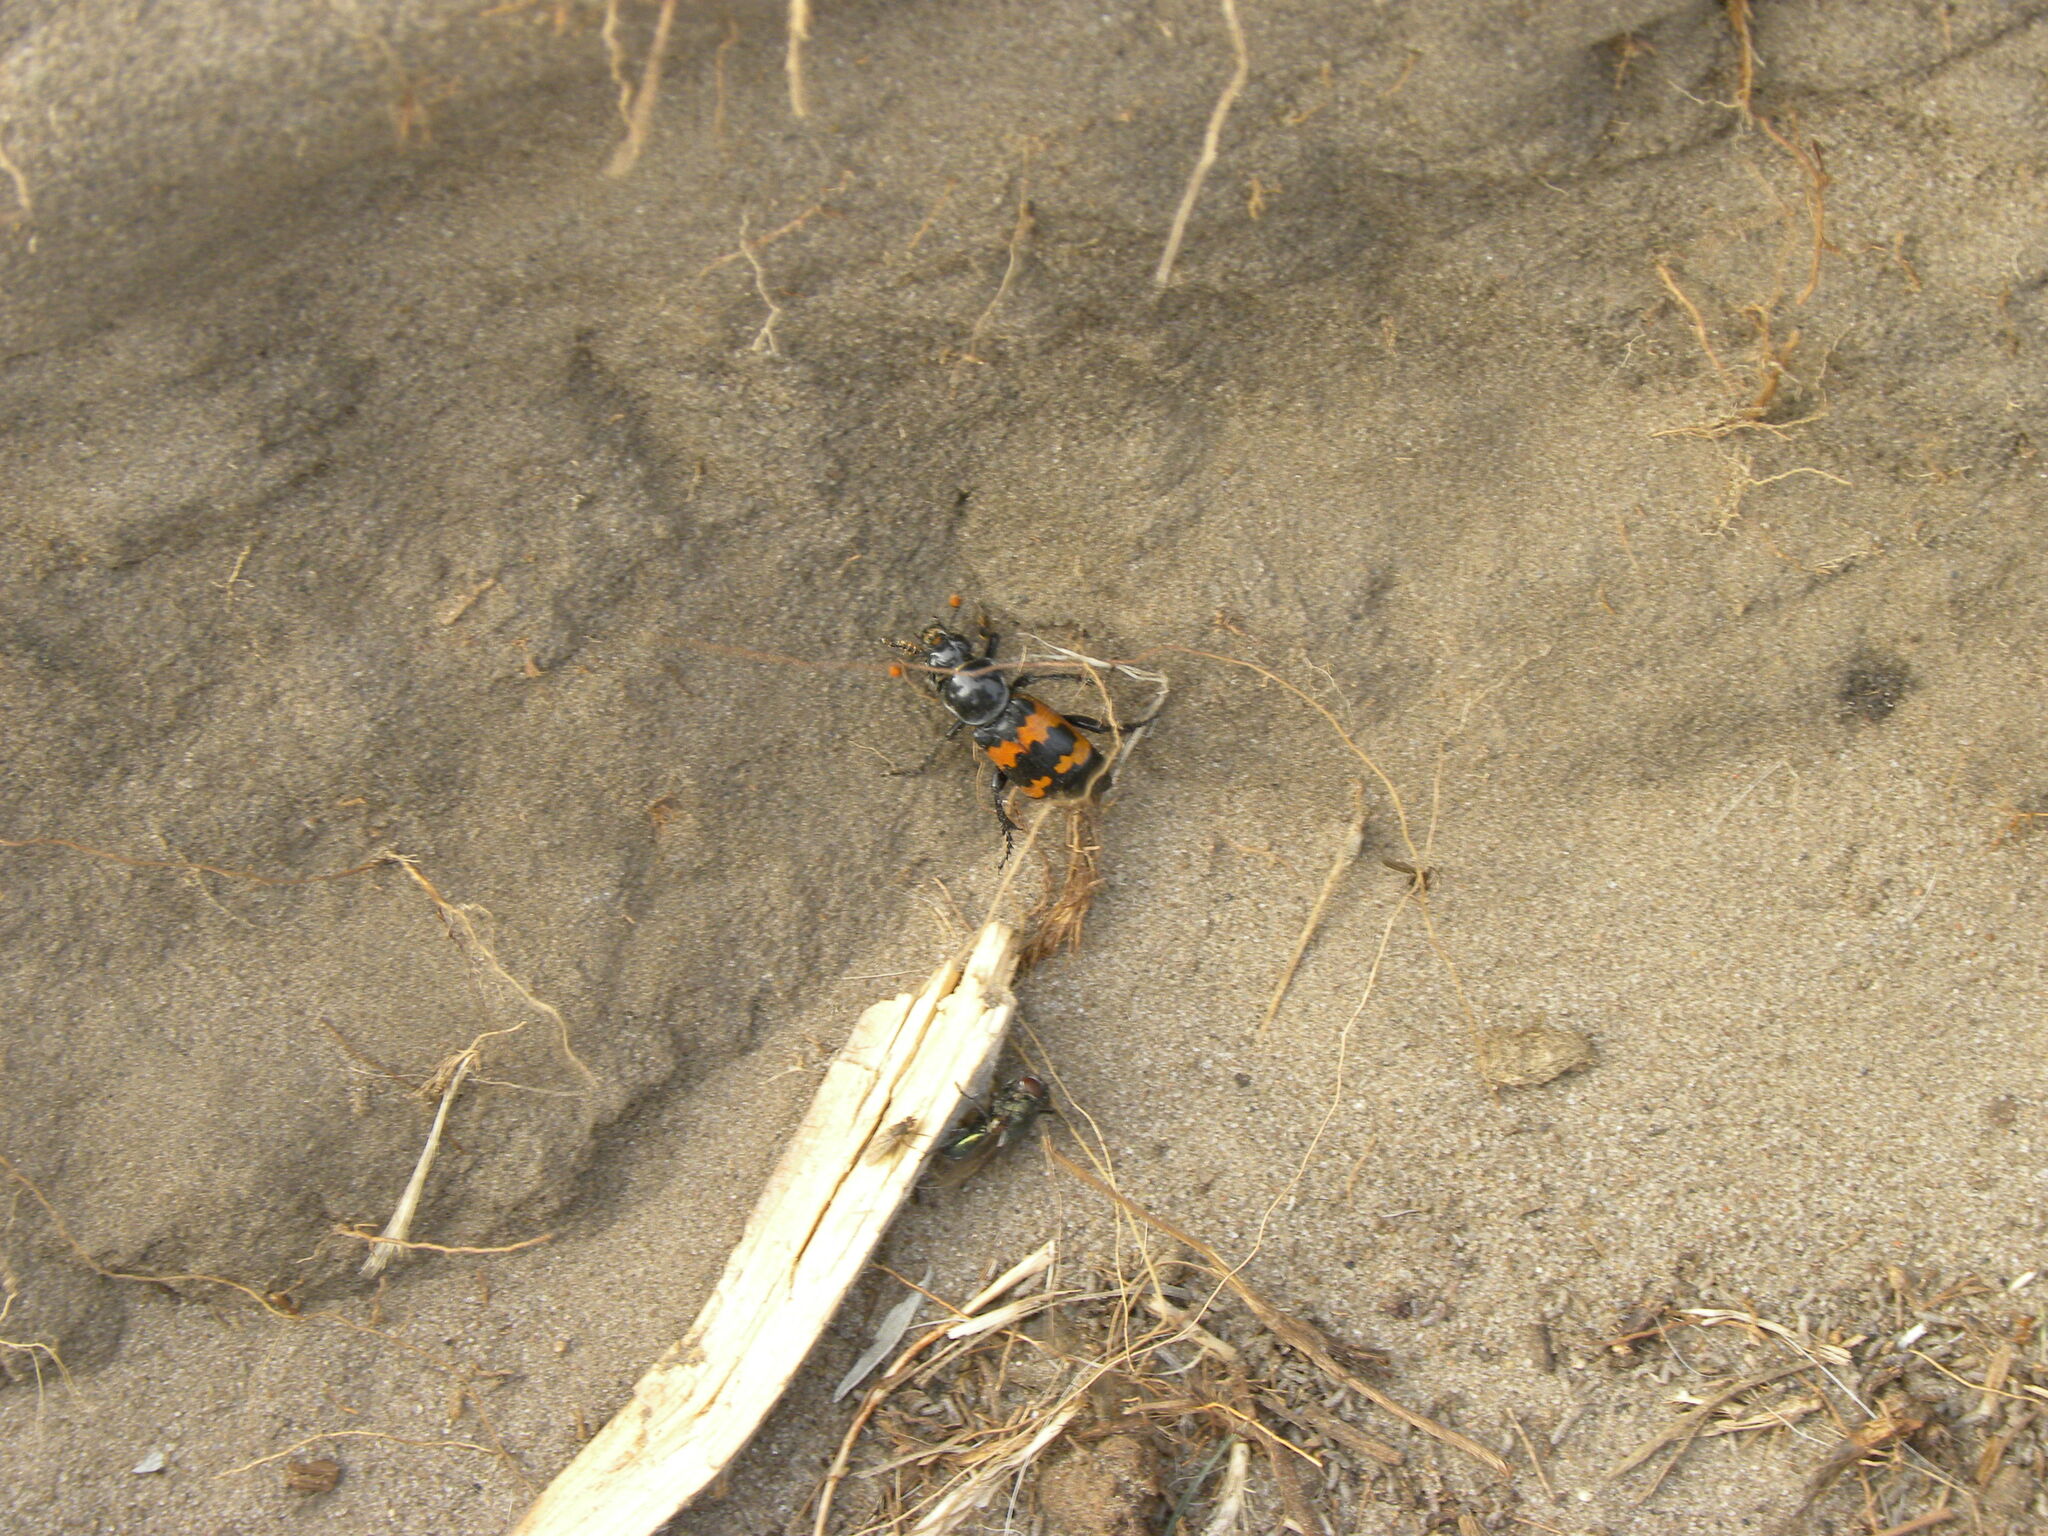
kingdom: Animalia
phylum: Arthropoda
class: Insecta
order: Coleoptera
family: Staphylinidae
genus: Nicrophorus
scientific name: Nicrophorus marginatus
